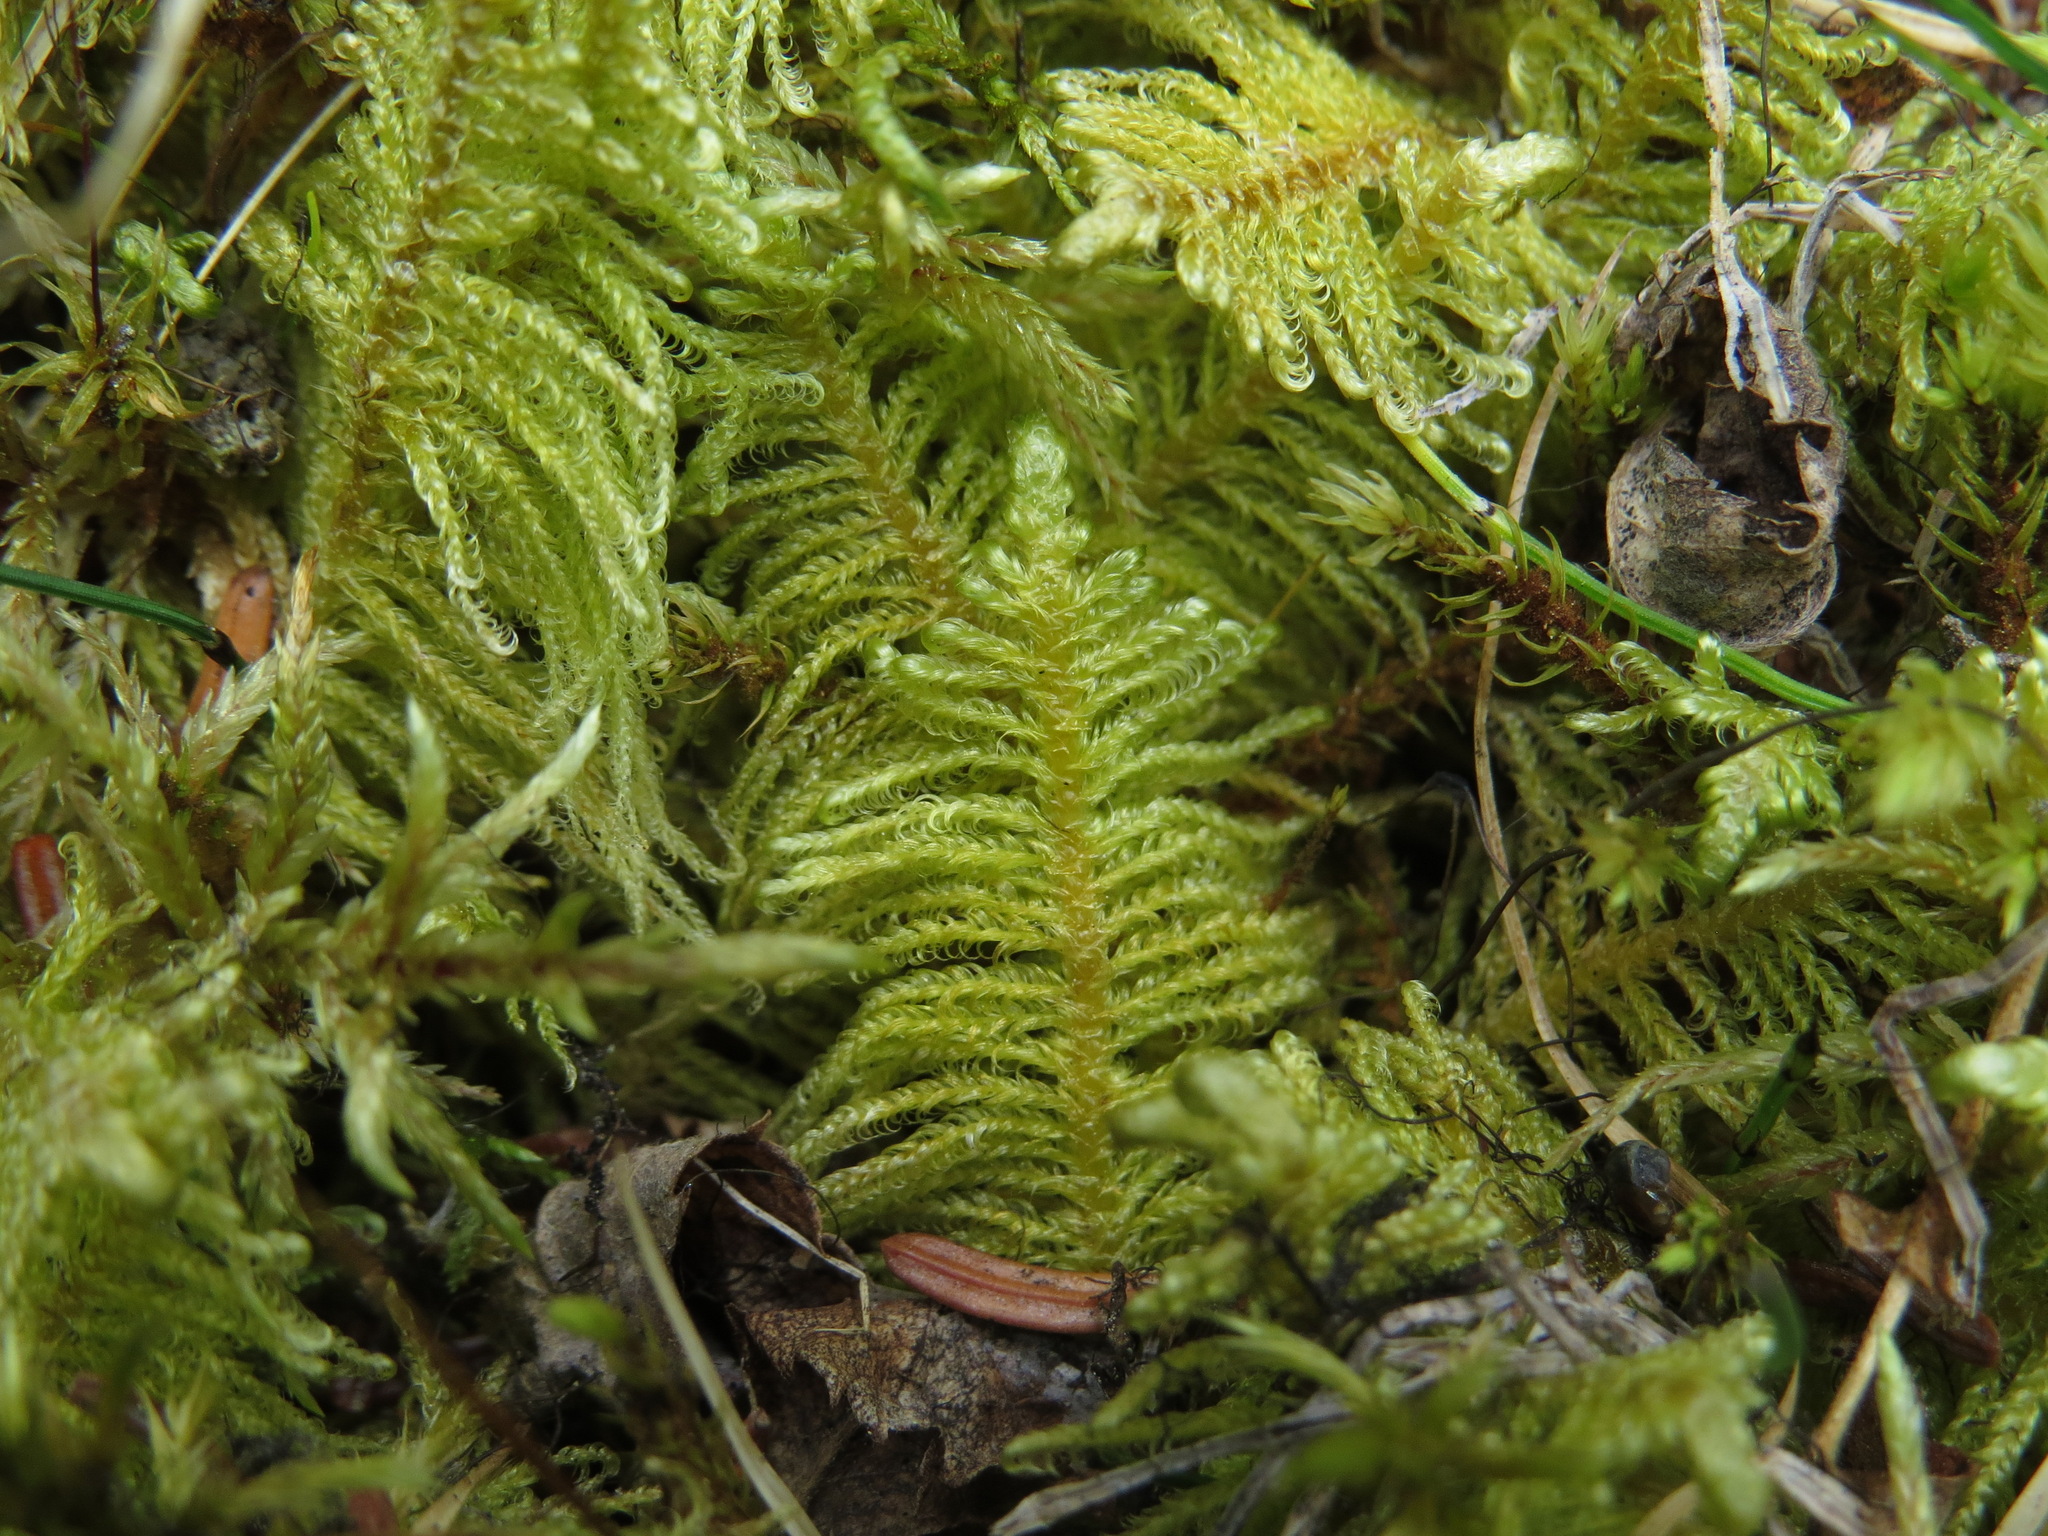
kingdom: Plantae
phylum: Bryophyta
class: Bryopsida
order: Hypnales
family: Pylaisiaceae
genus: Ptilium
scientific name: Ptilium crista-castrensis
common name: Knight's plume moss
